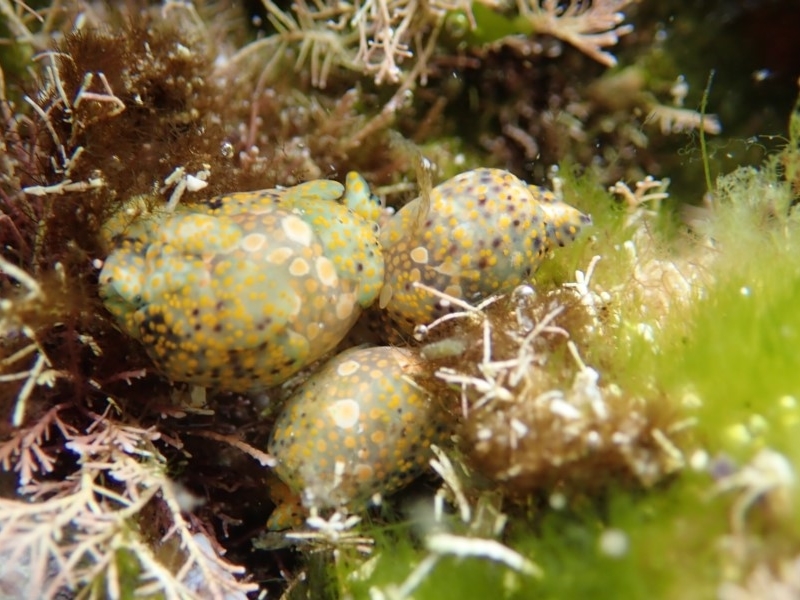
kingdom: Animalia
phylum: Mollusca
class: Gastropoda
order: Cephalaspidea
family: Haminoeidae
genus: Lamprohaminoea
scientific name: Lamprohaminoea ovalis
